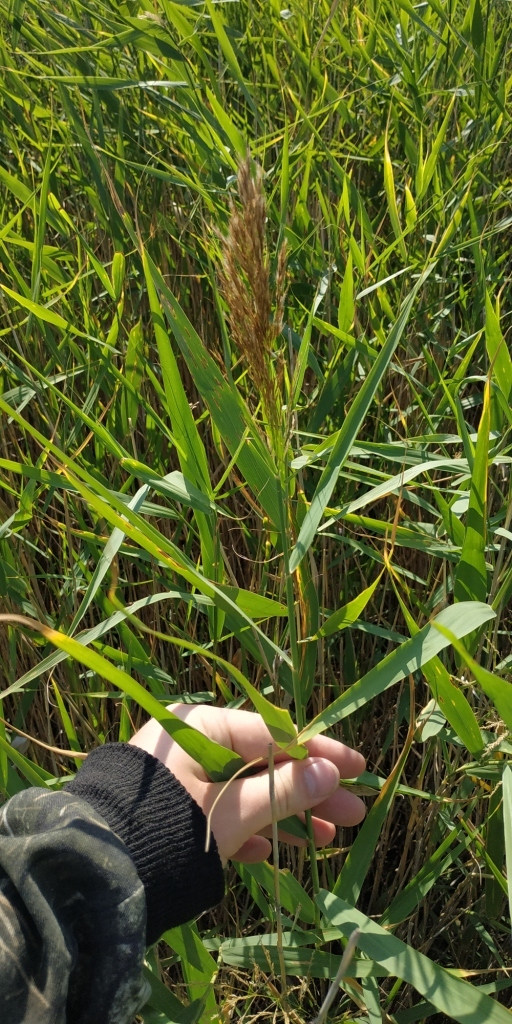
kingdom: Plantae
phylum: Tracheophyta
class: Liliopsida
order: Poales
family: Poaceae
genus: Phragmites
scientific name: Phragmites australis
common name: Common reed
